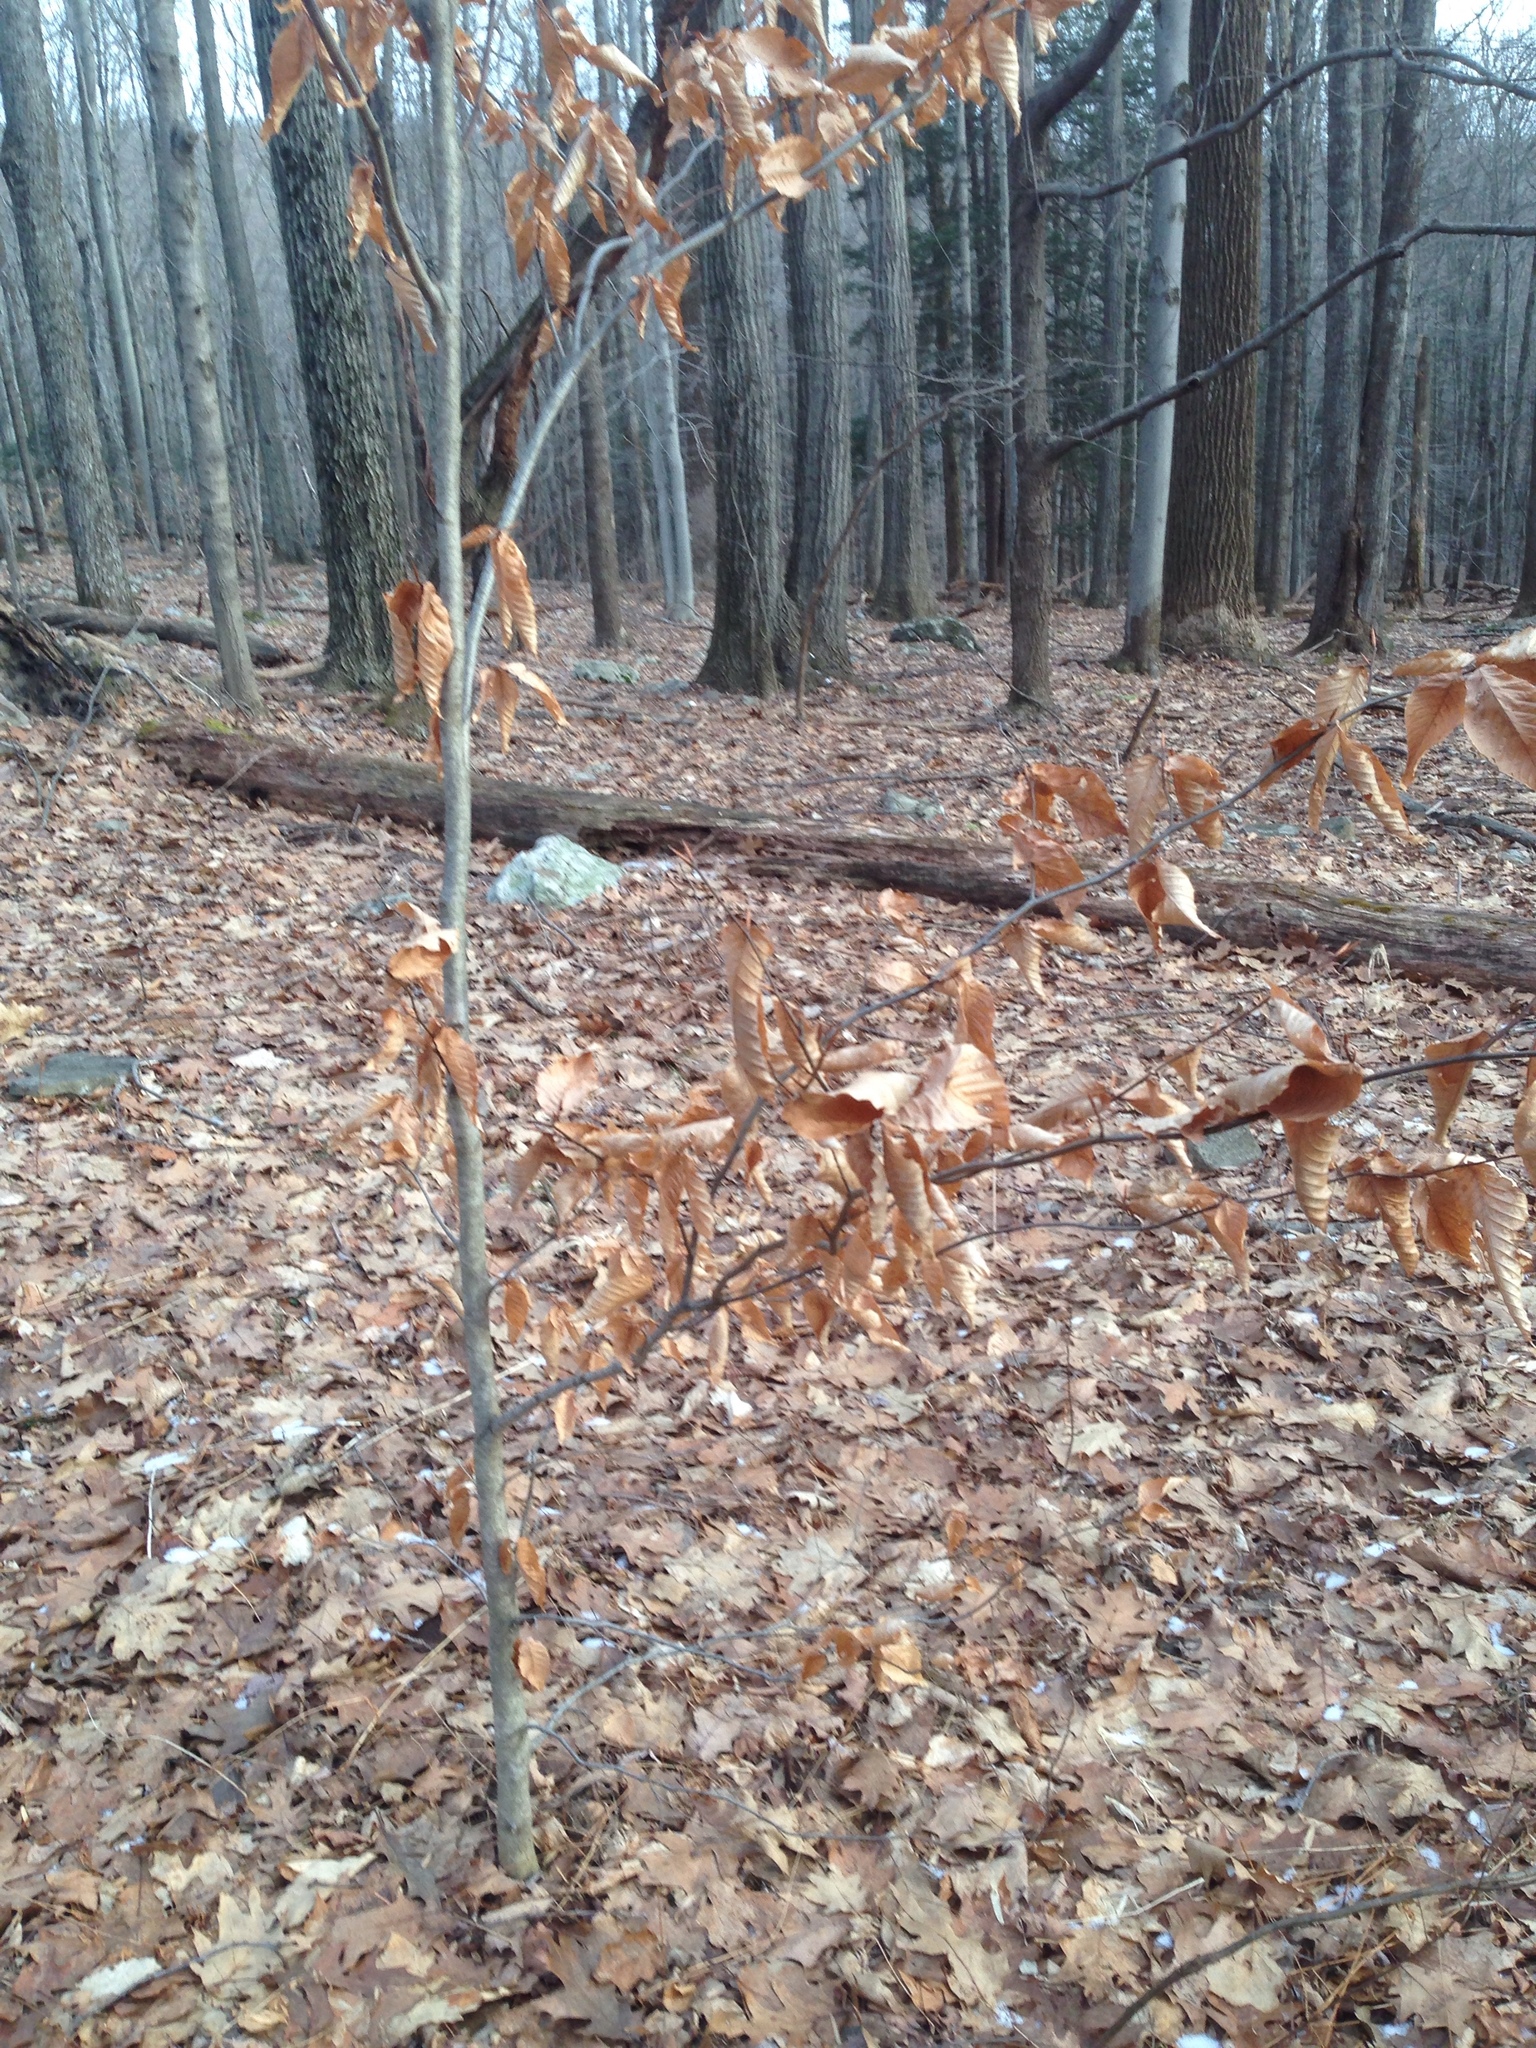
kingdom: Plantae
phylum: Tracheophyta
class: Magnoliopsida
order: Fagales
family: Fagaceae
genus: Fagus
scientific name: Fagus grandifolia
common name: American beech
